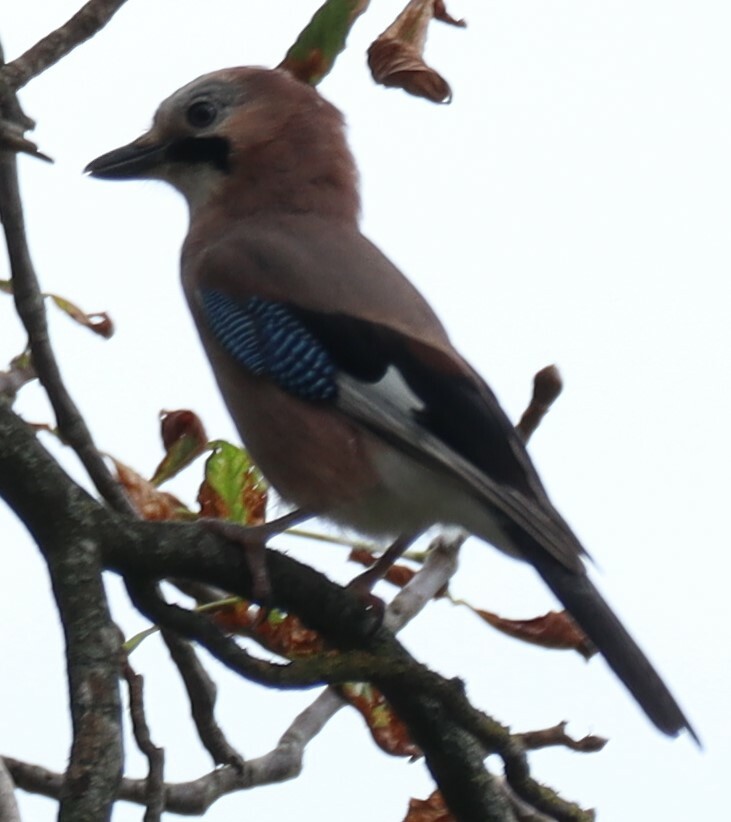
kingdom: Animalia
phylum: Chordata
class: Aves
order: Passeriformes
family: Corvidae
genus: Garrulus
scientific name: Garrulus glandarius
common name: Eurasian jay
